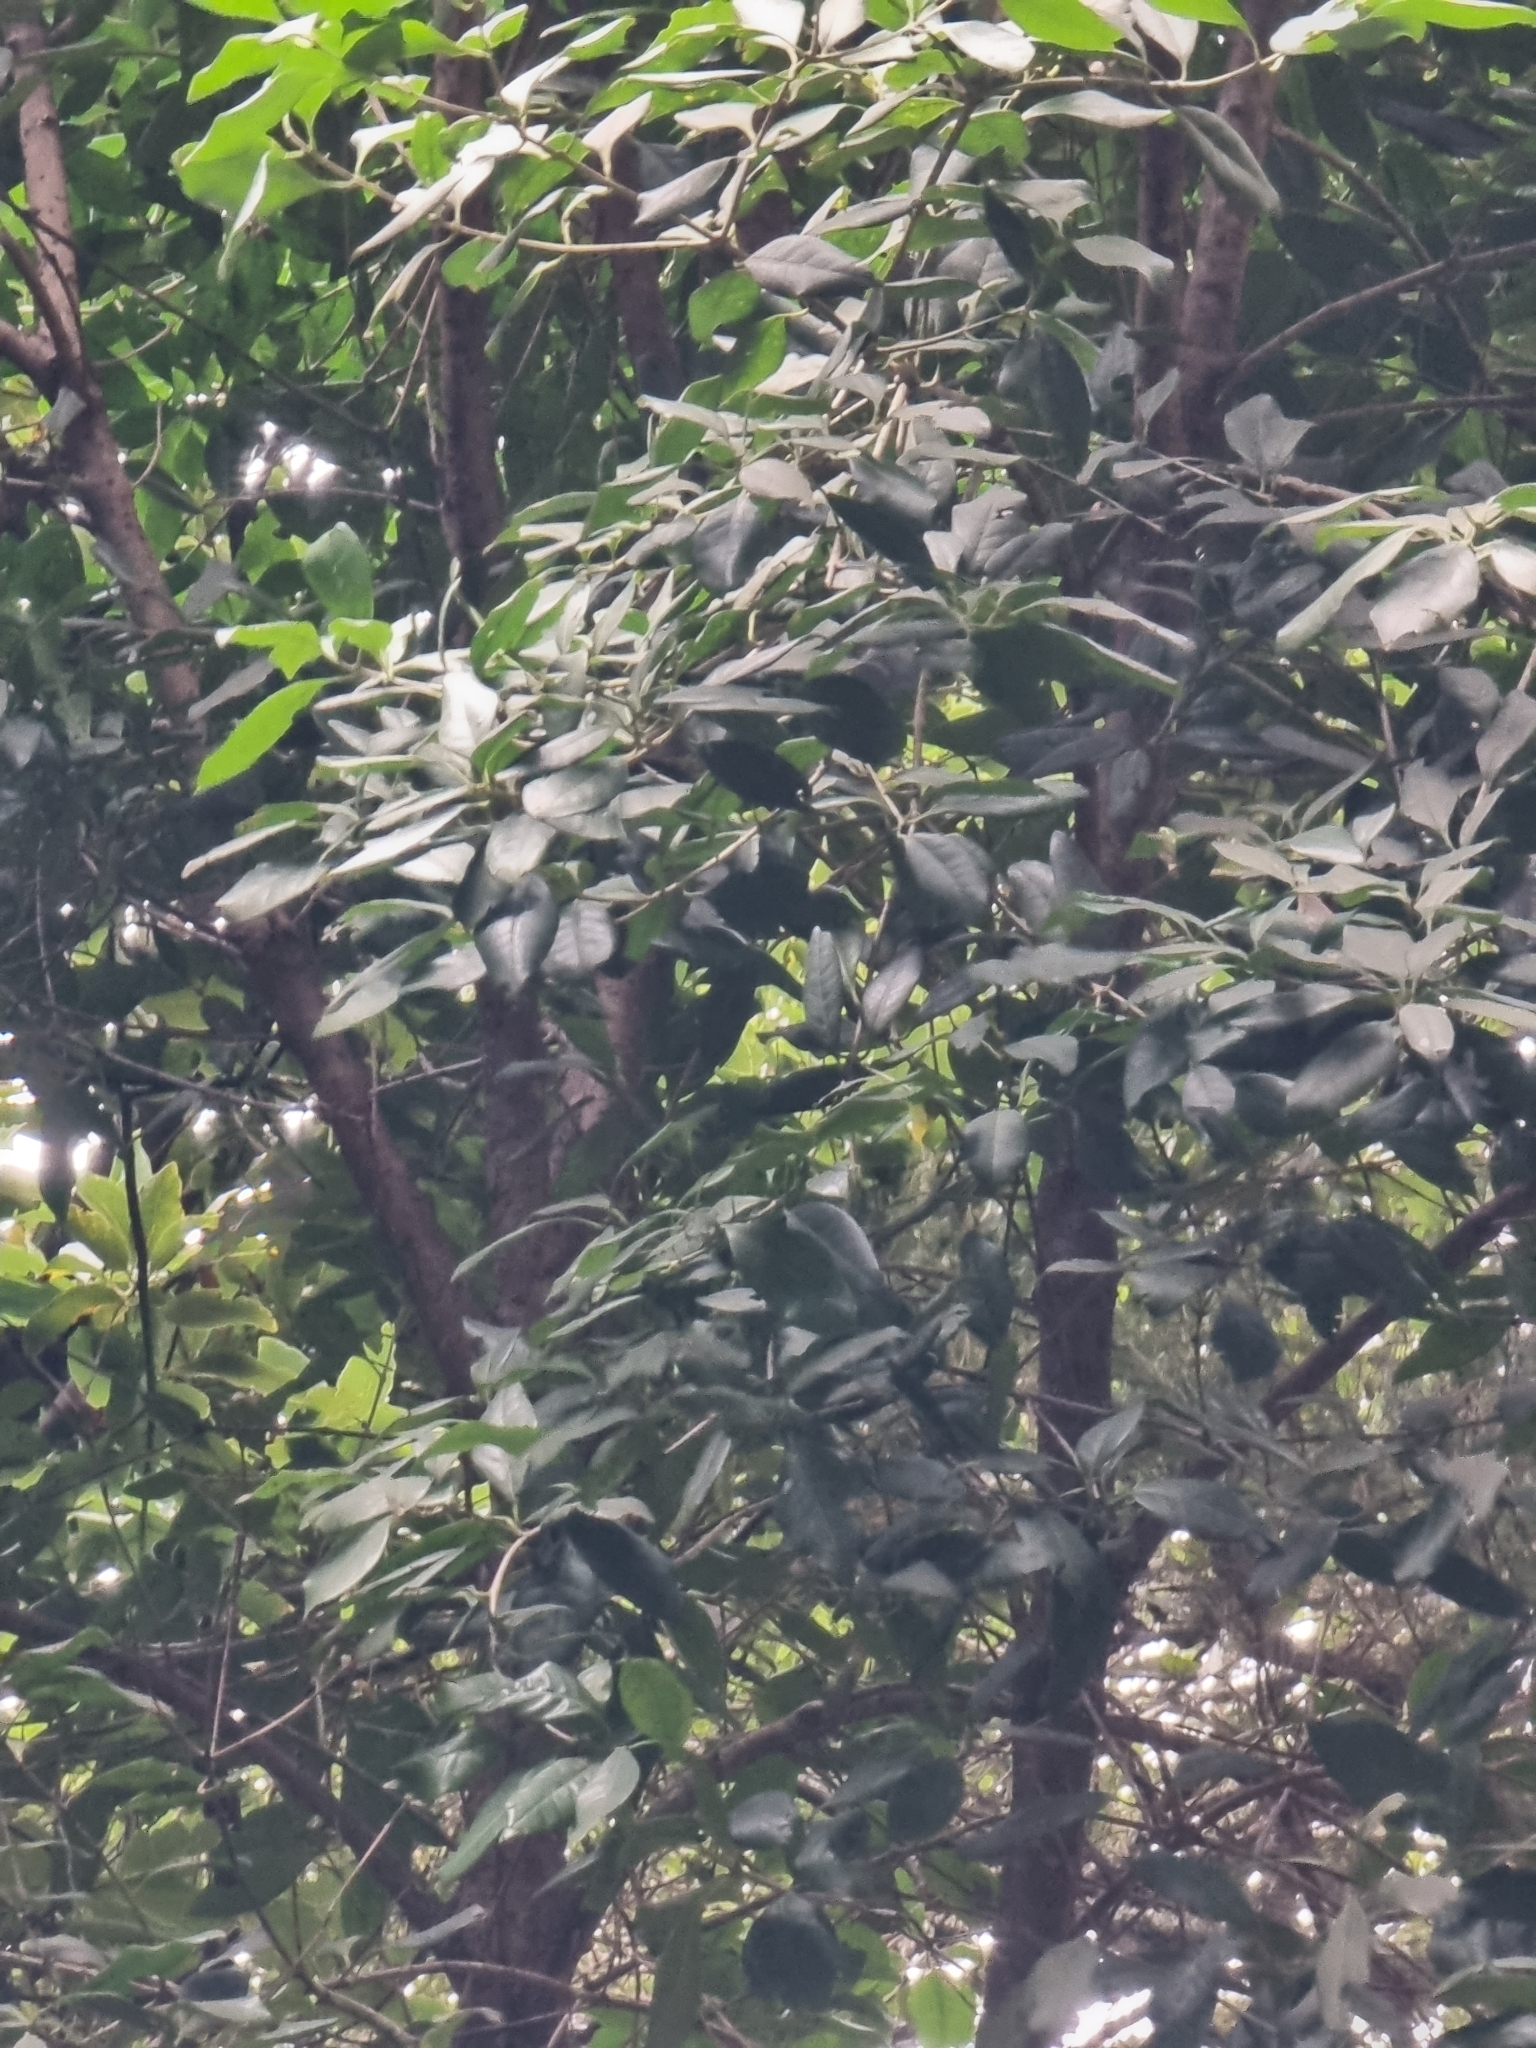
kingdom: Plantae
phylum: Tracheophyta
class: Magnoliopsida
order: Lamiales
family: Oleaceae
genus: Picconia
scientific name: Picconia excelsa
